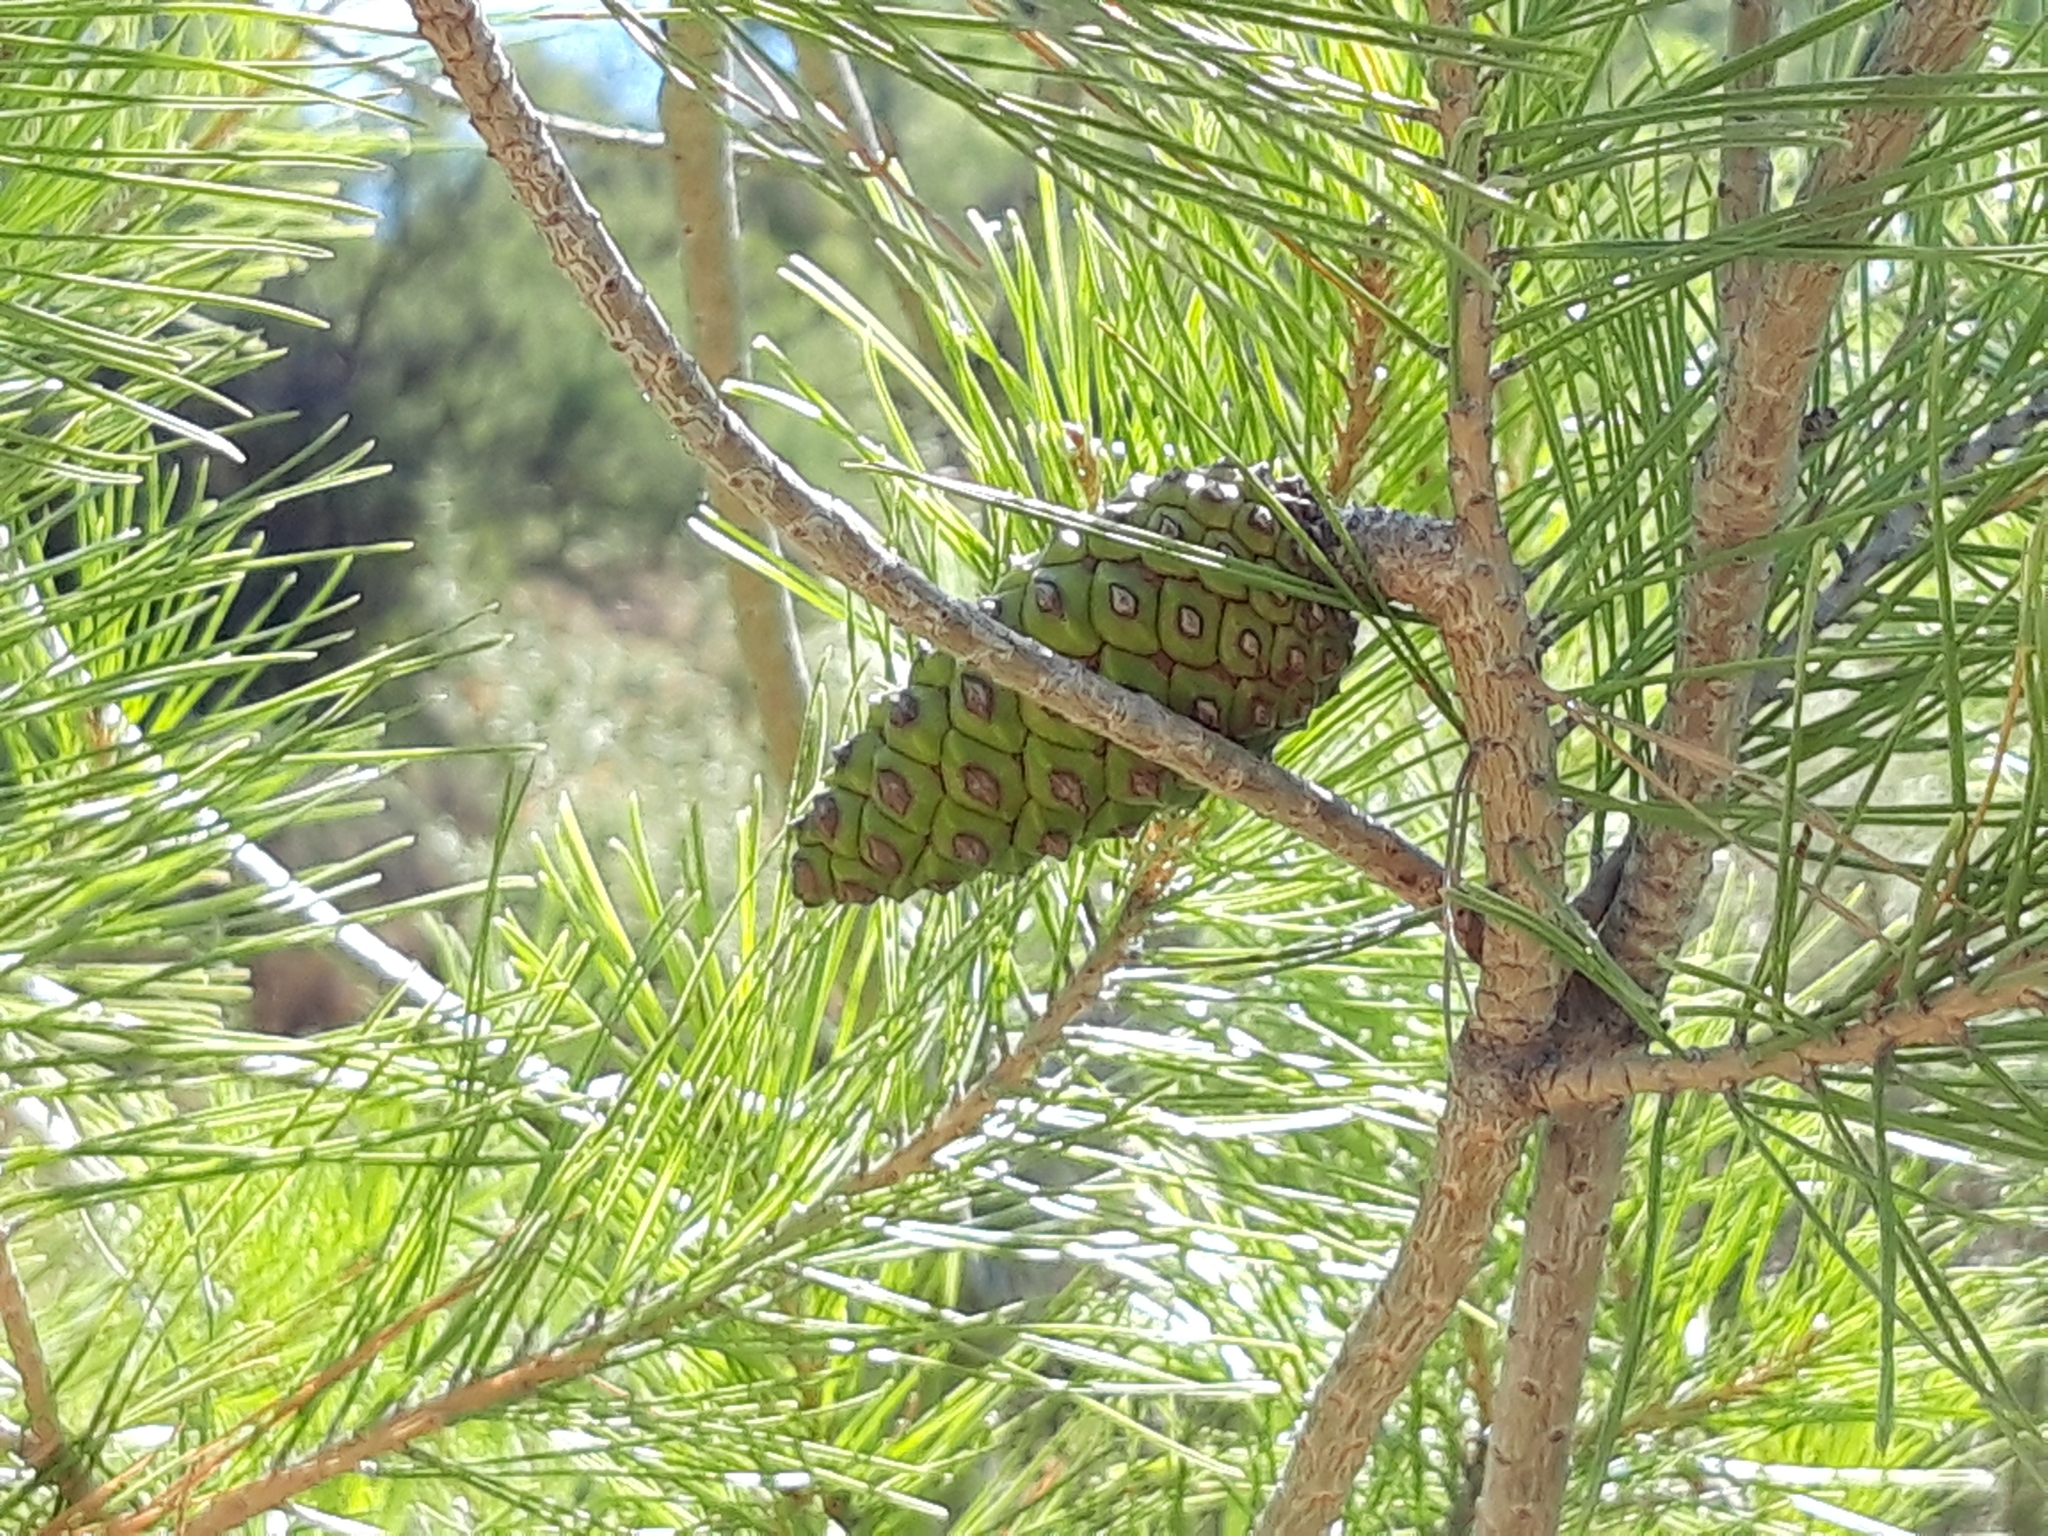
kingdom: Plantae
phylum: Tracheophyta
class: Pinopsida
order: Pinales
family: Pinaceae
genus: Pinus
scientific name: Pinus halepensis
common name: Aleppo pine
